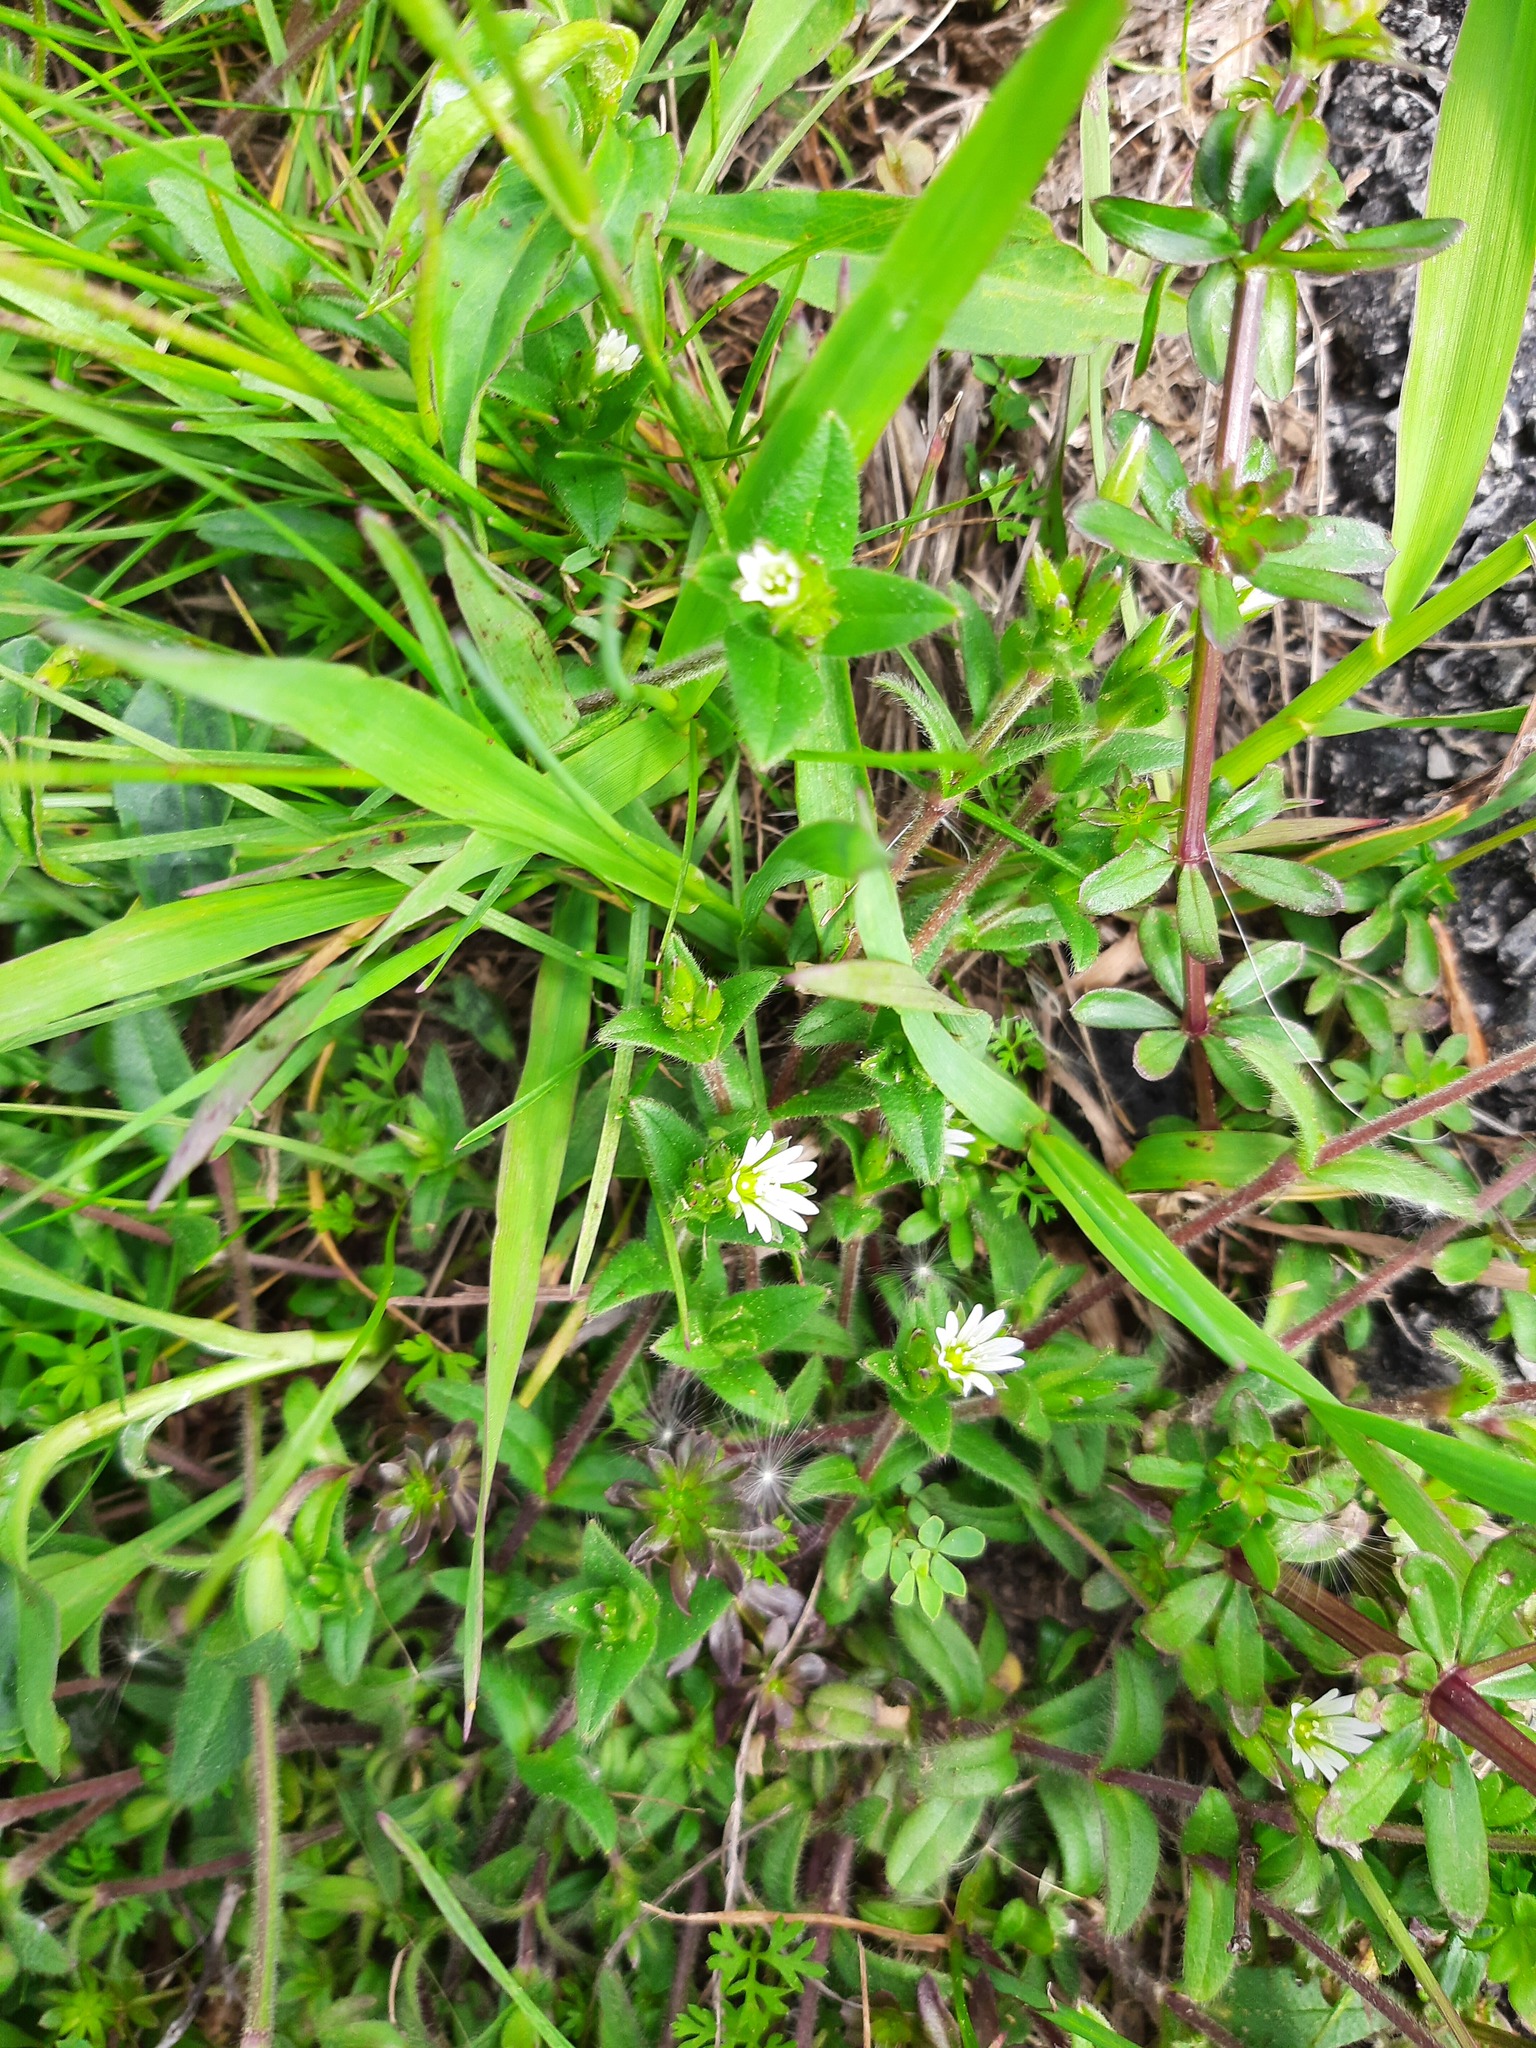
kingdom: Plantae
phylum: Tracheophyta
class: Magnoliopsida
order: Caryophyllales
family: Caryophyllaceae
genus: Cerastium
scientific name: Cerastium fontanum
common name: Common mouse-ear
